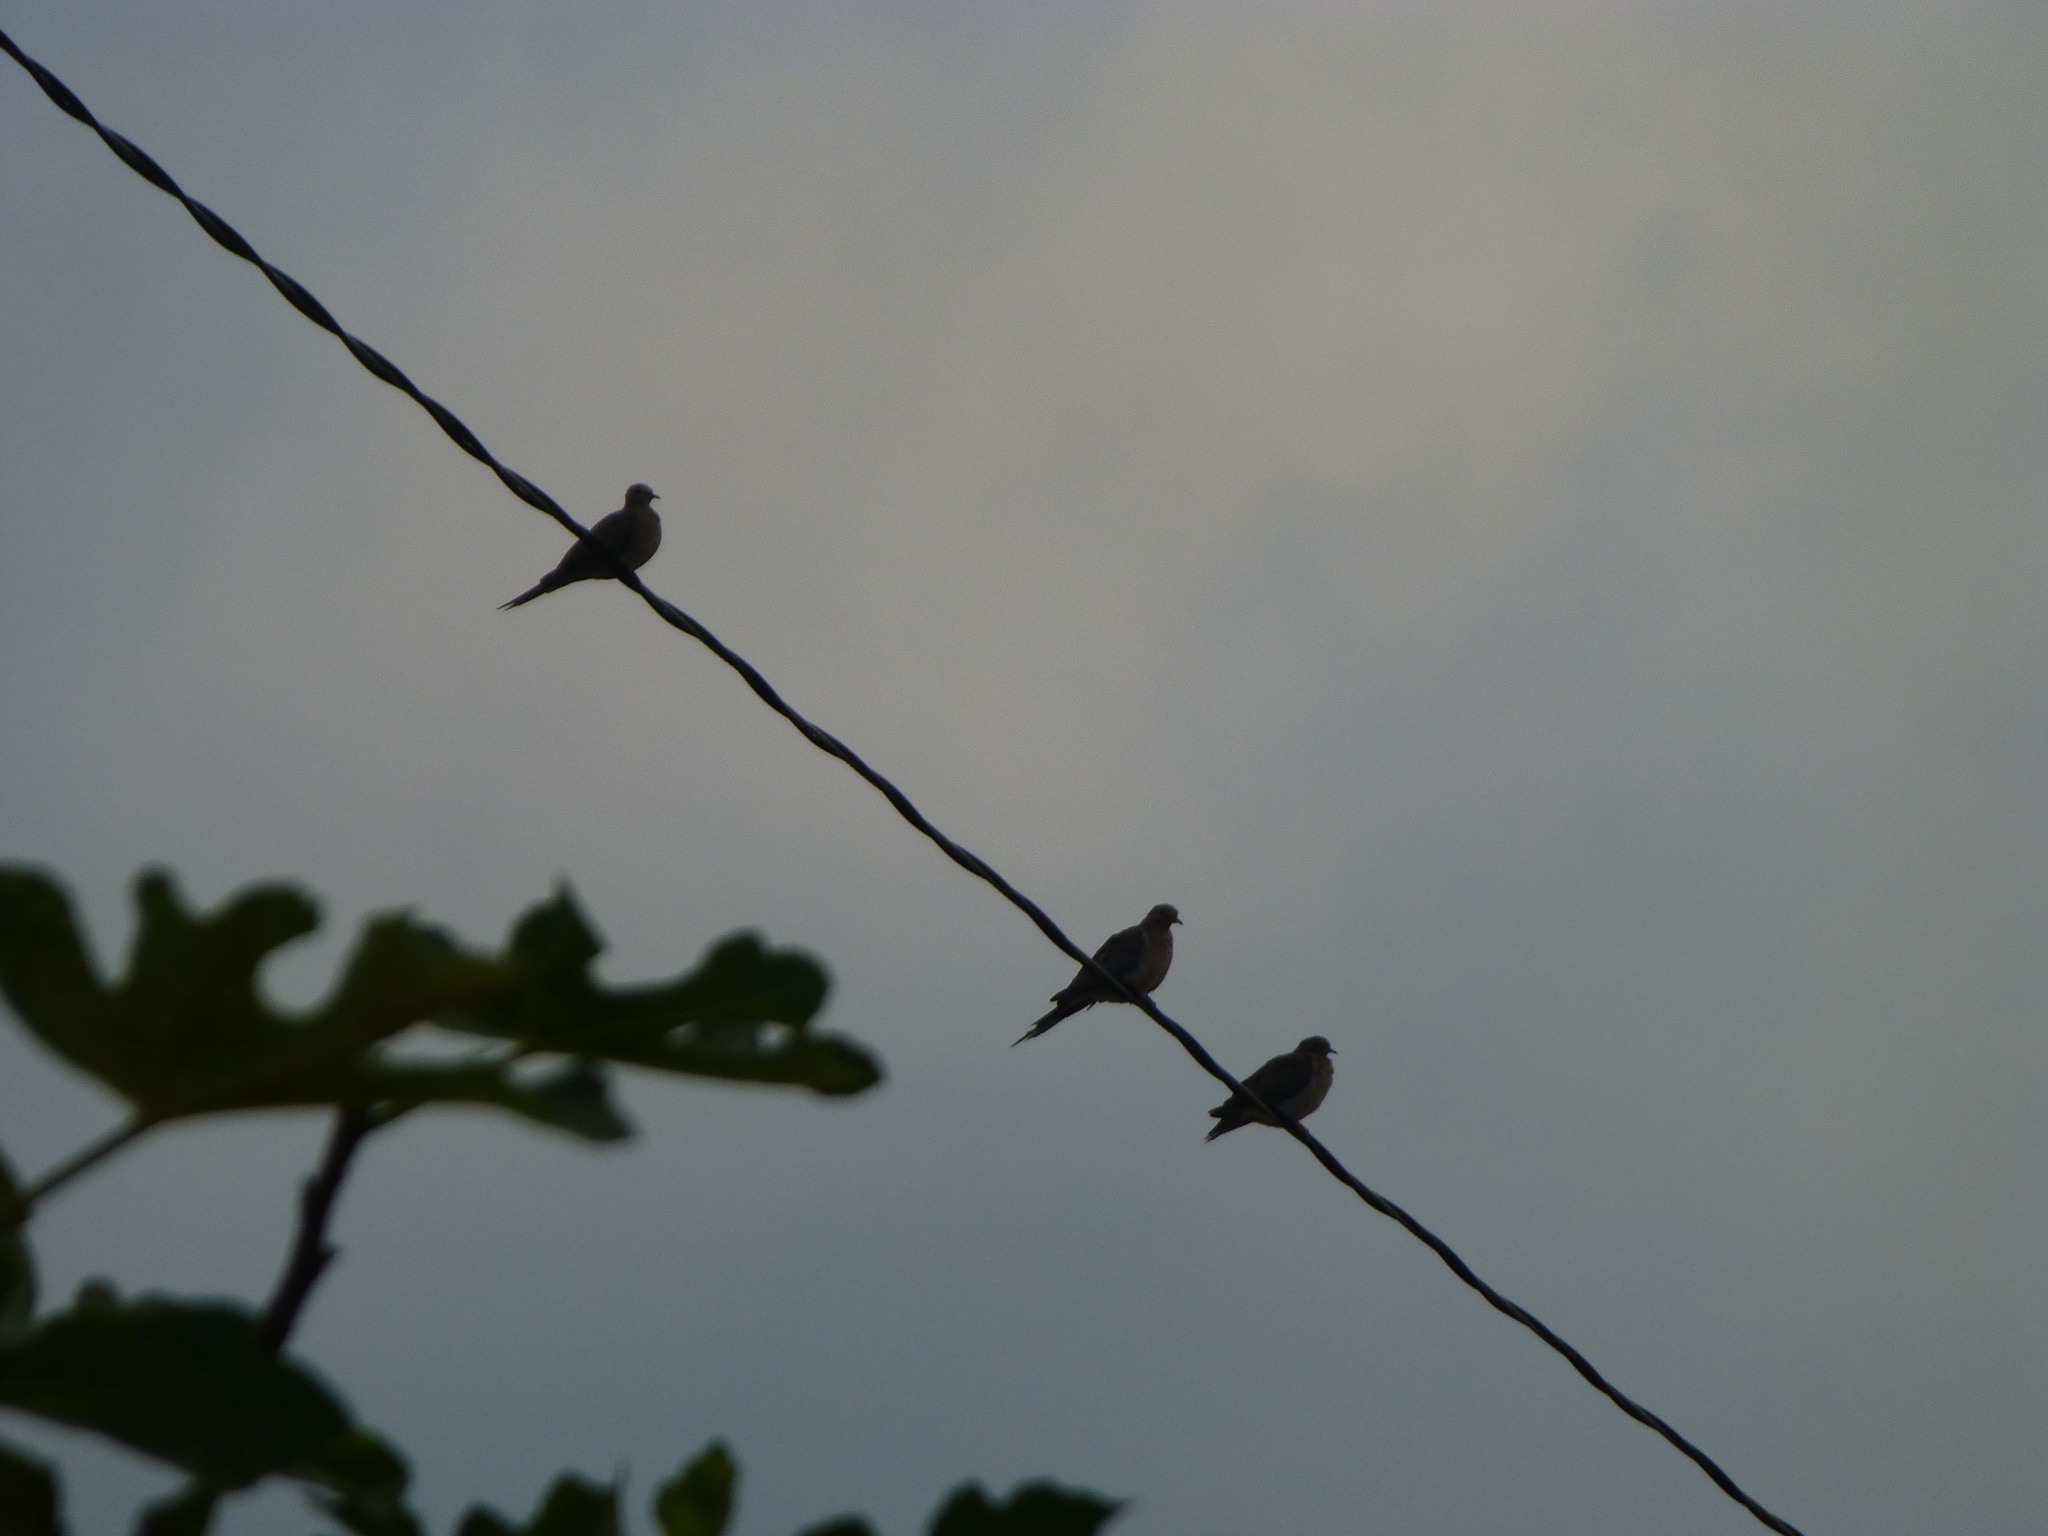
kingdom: Animalia
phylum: Chordata
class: Aves
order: Columbiformes
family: Columbidae
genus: Zenaida
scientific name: Zenaida macroura
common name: Mourning dove
